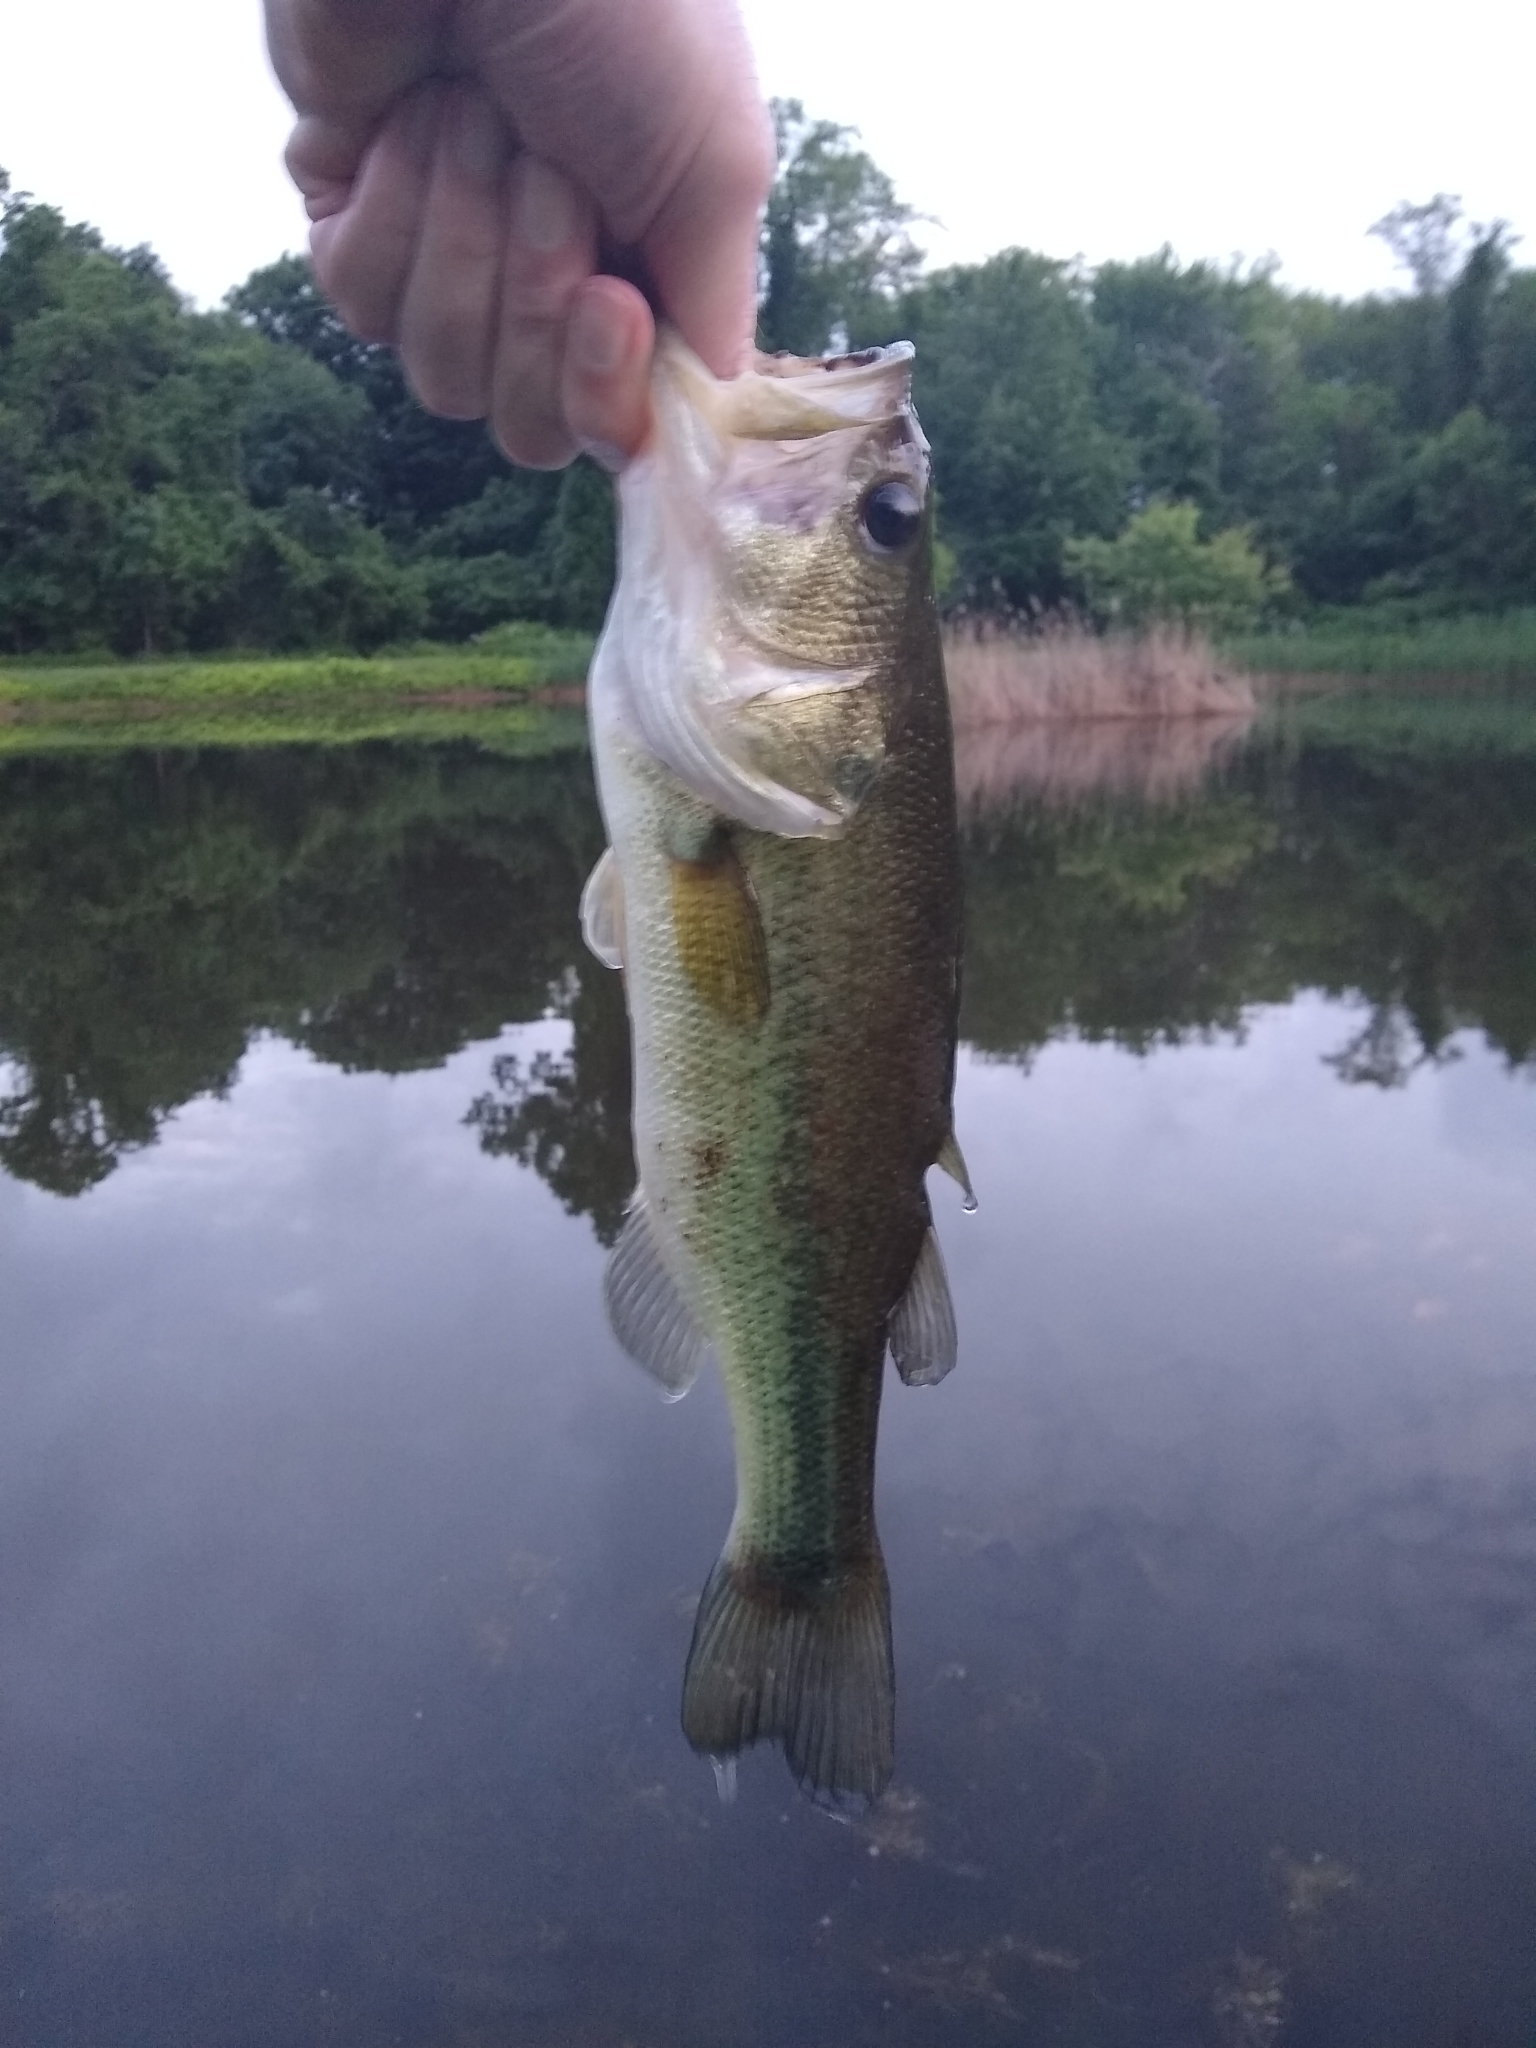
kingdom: Animalia
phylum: Chordata
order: Perciformes
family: Centrarchidae
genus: Micropterus
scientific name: Micropterus
